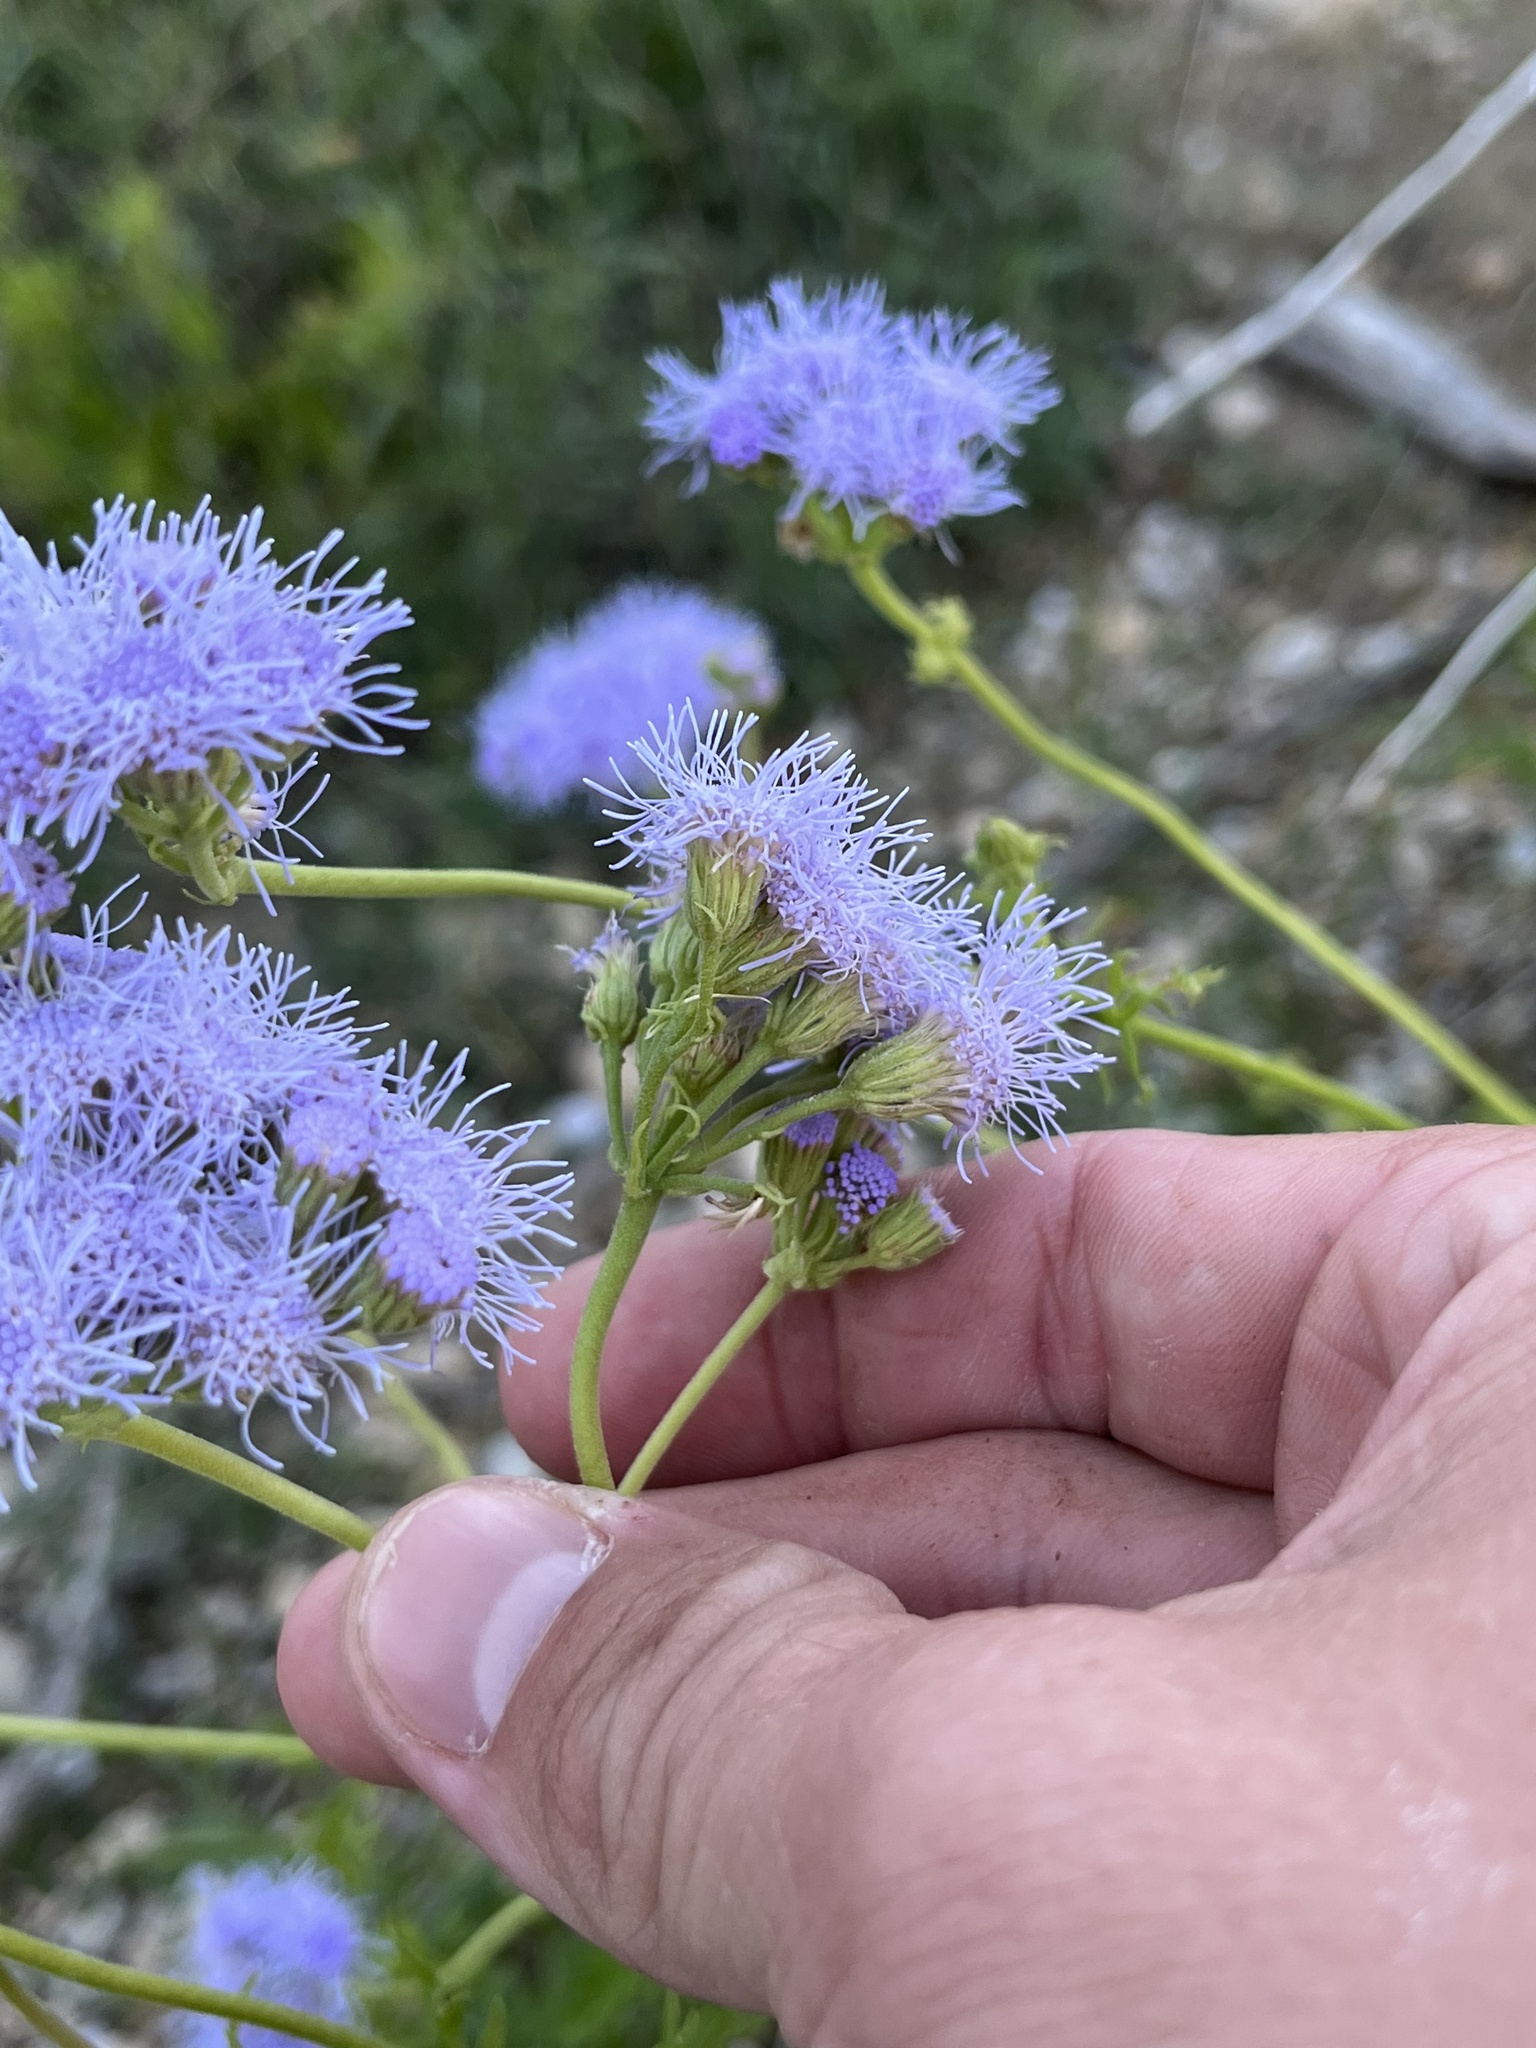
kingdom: Plantae
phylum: Tracheophyta
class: Magnoliopsida
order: Asterales
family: Asteraceae
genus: Conoclinium
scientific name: Conoclinium dissectum
